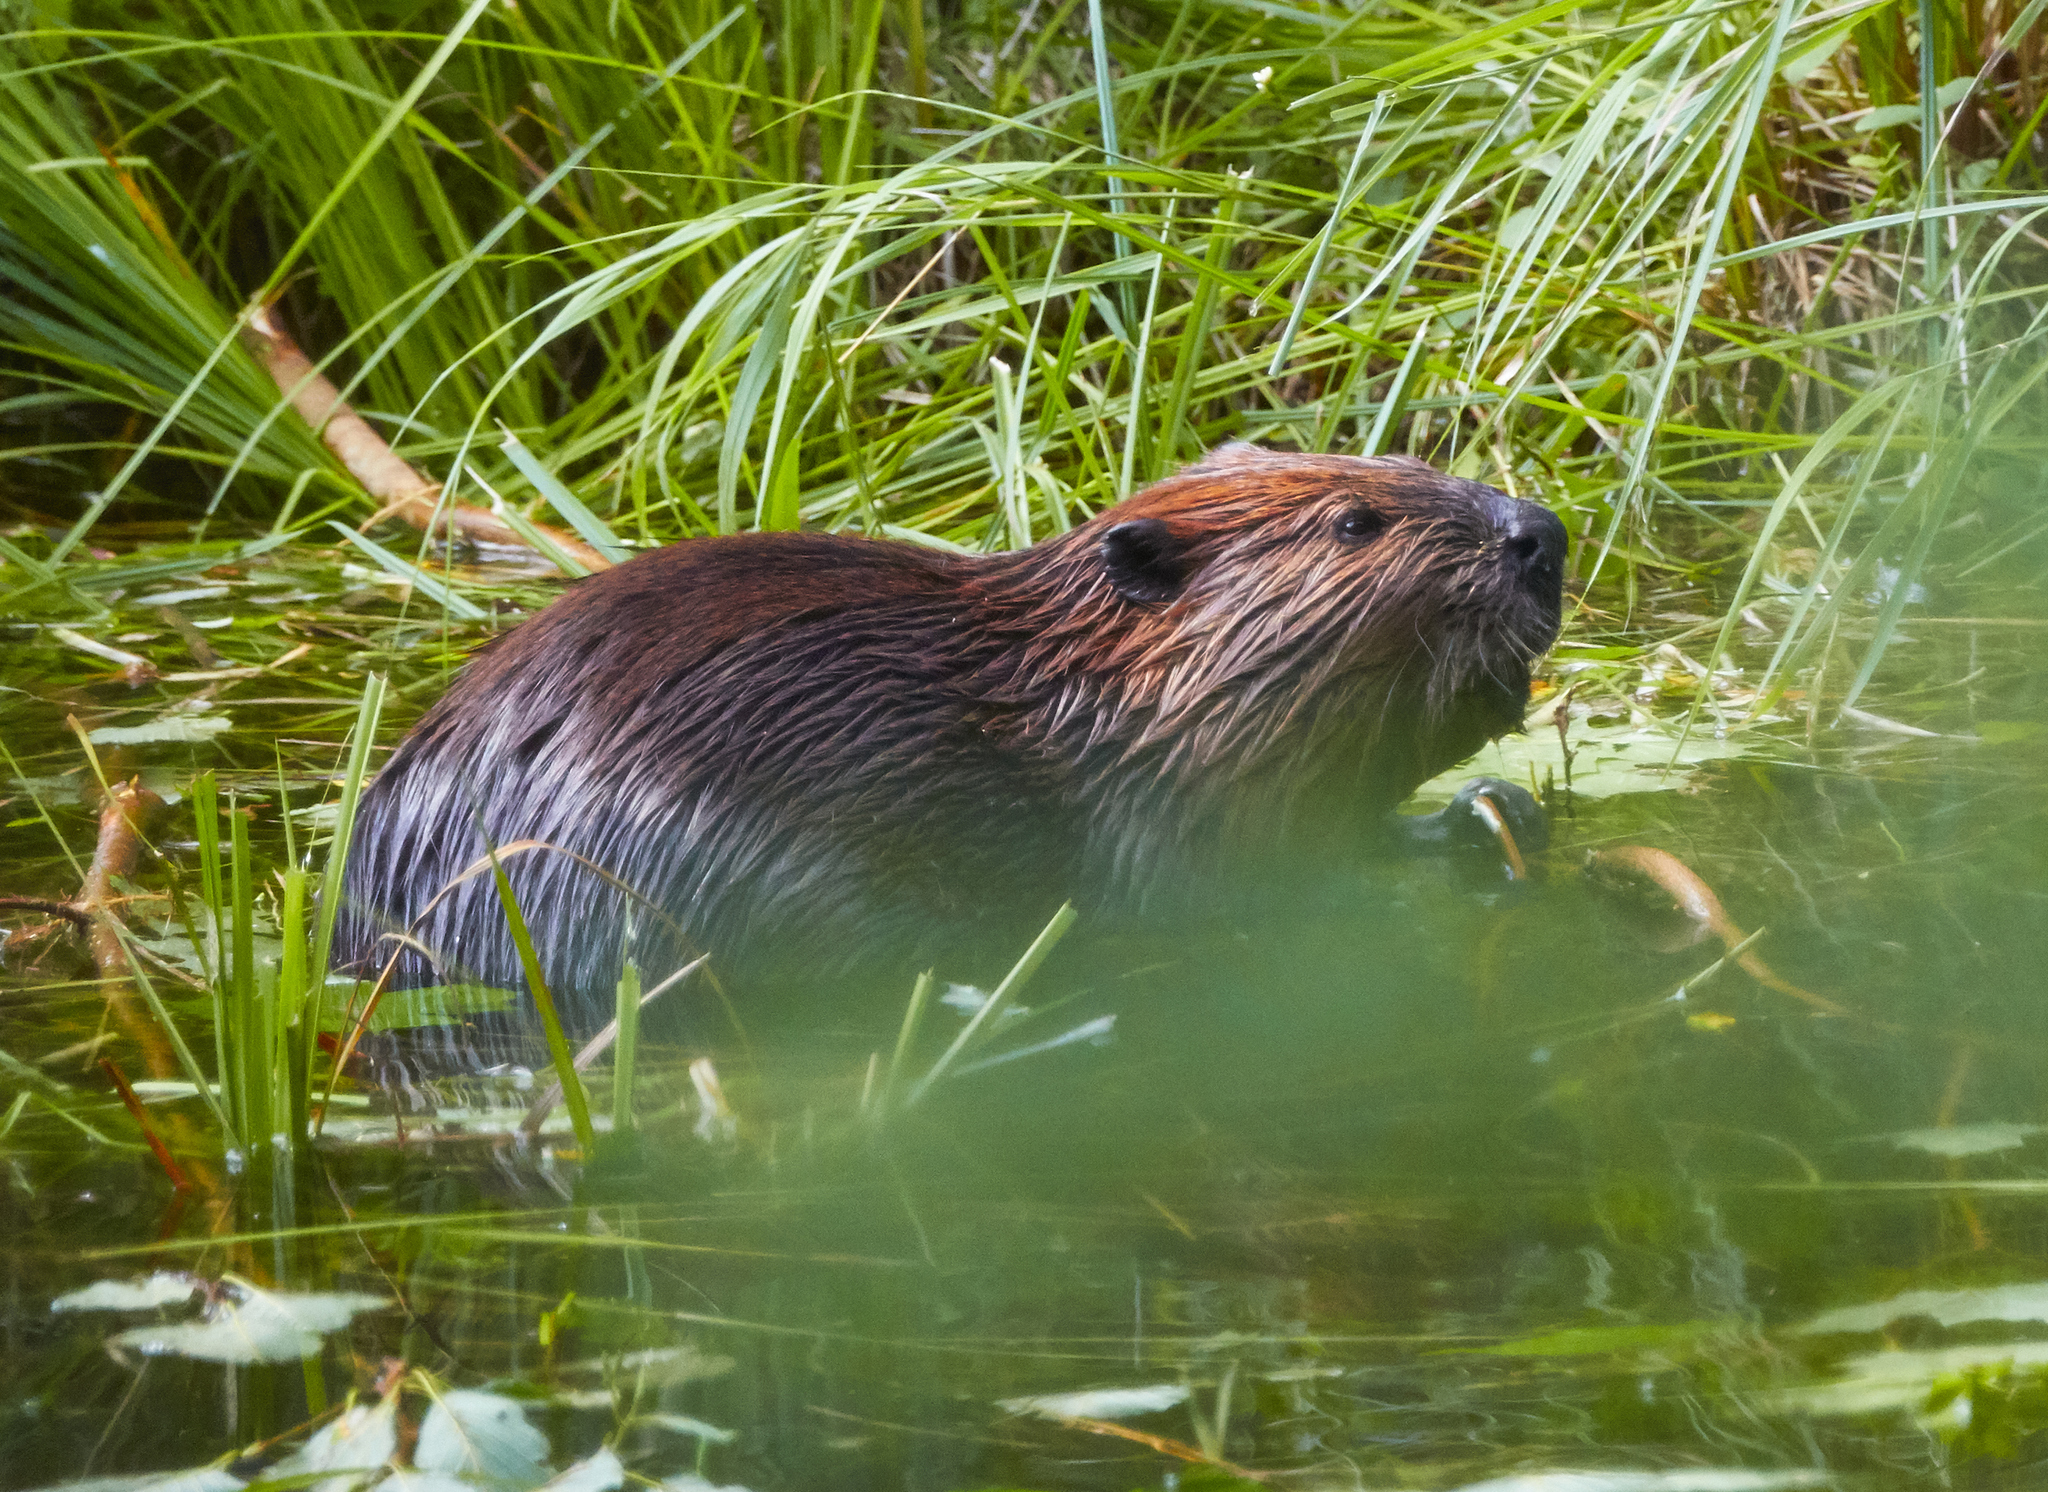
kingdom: Animalia
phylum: Chordata
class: Mammalia
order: Rodentia
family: Castoridae
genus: Castor
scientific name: Castor canadensis
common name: American beaver
